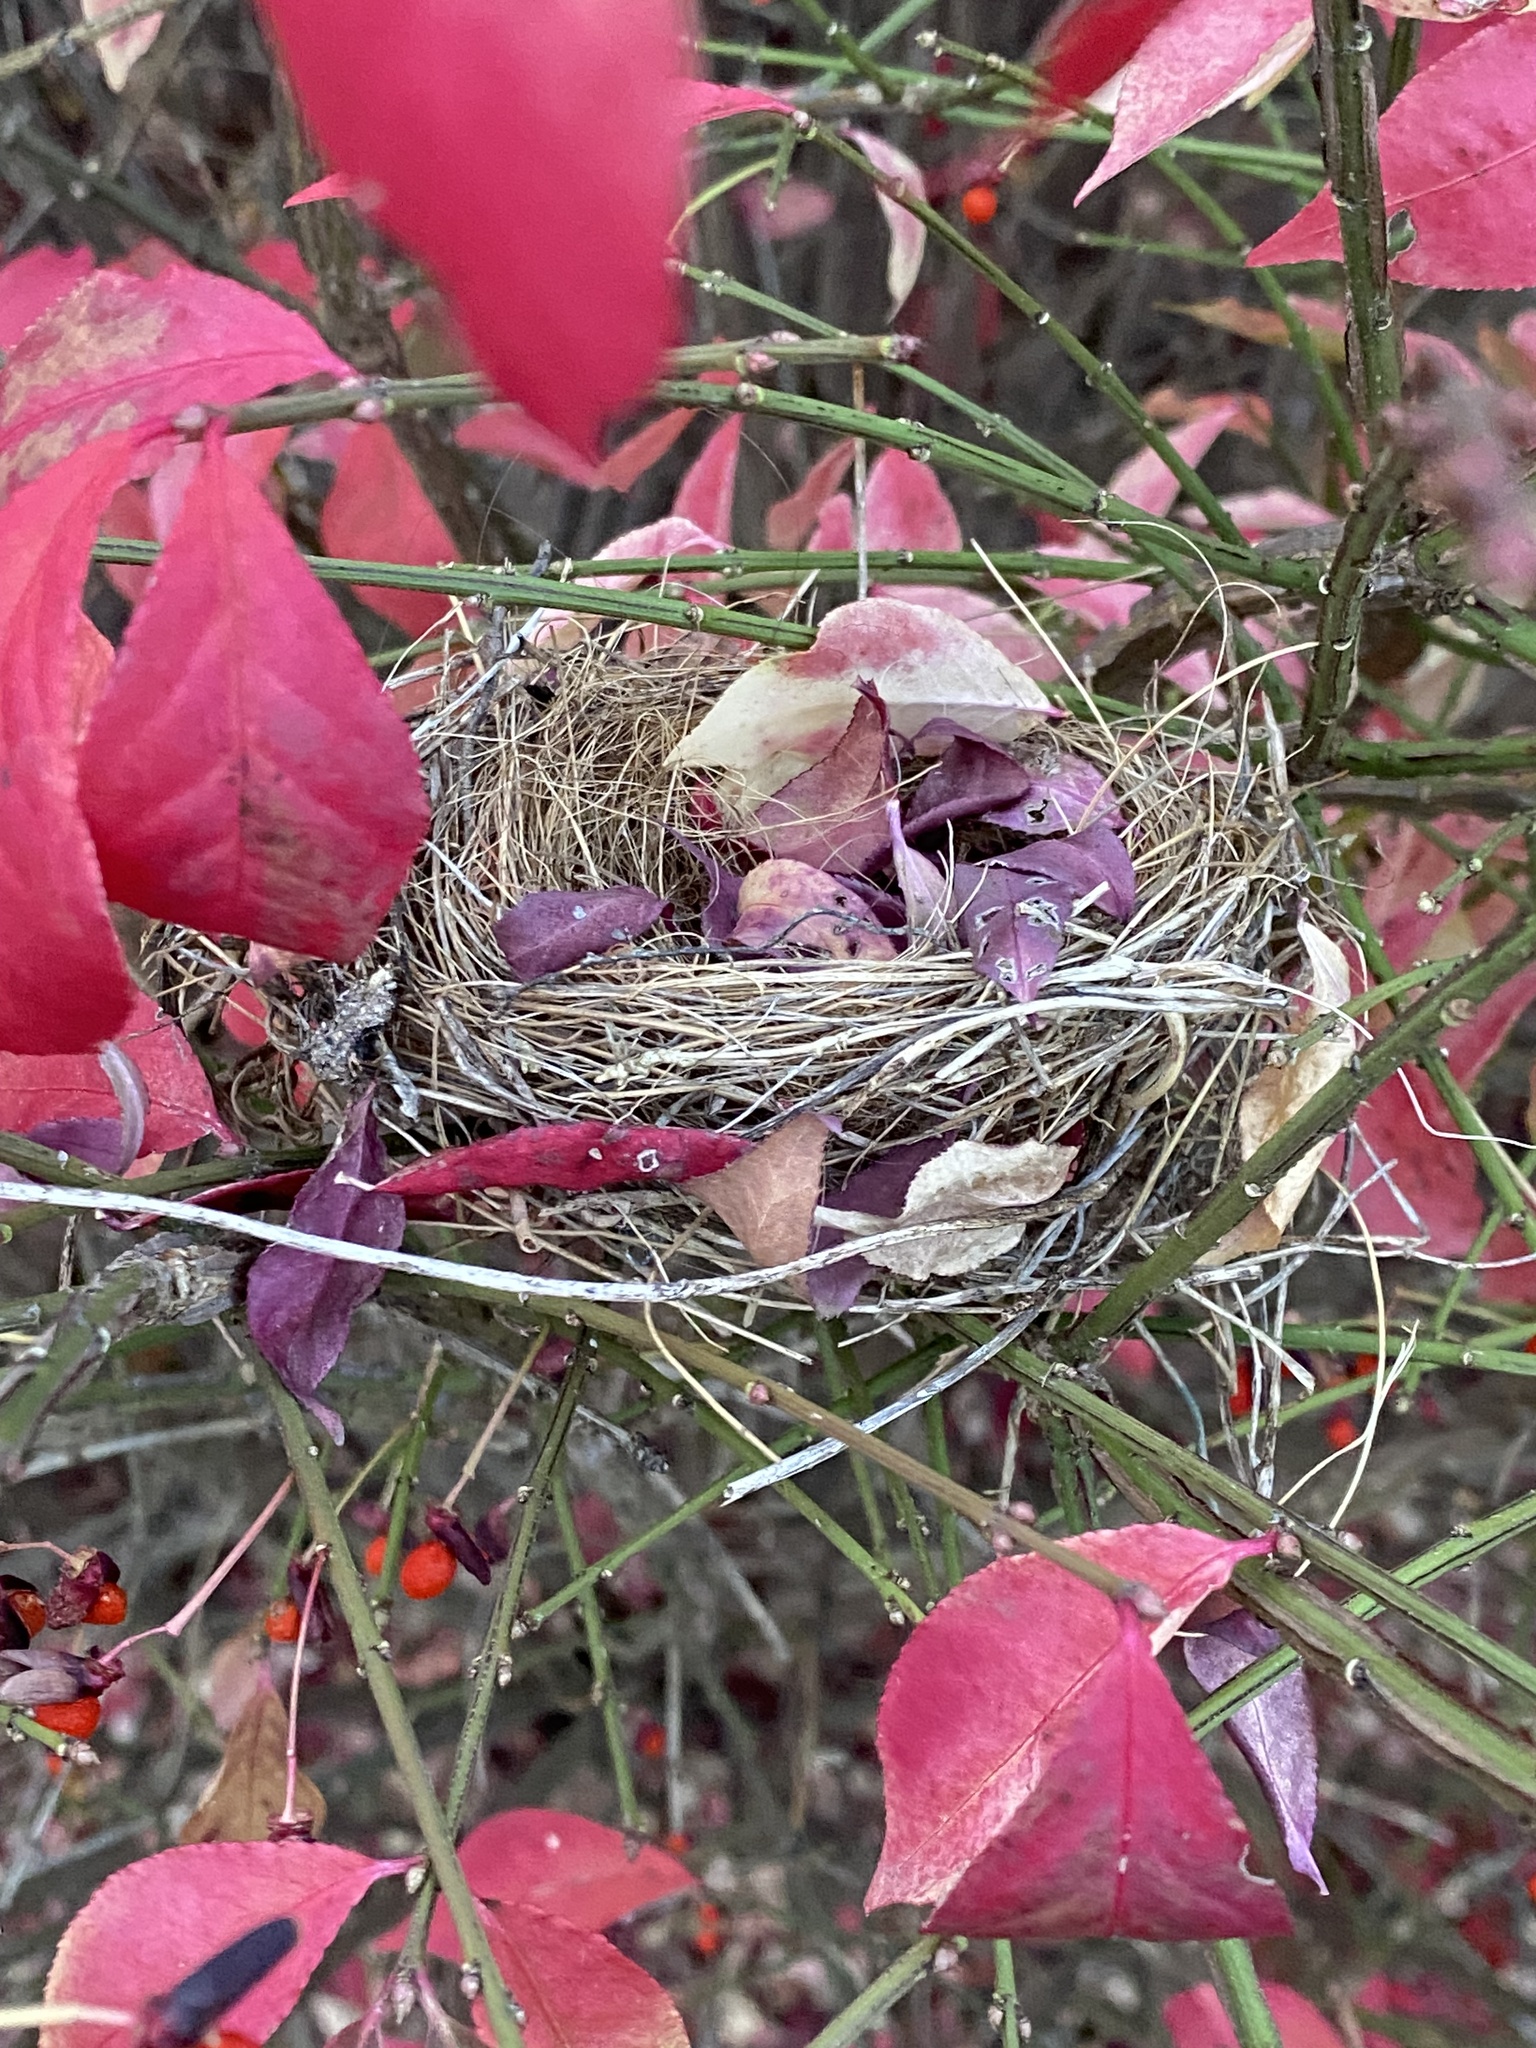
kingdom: Animalia
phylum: Chordata
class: Aves
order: Passeriformes
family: Passerellidae
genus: Spizella
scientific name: Spizella passerina
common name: Chipping sparrow
